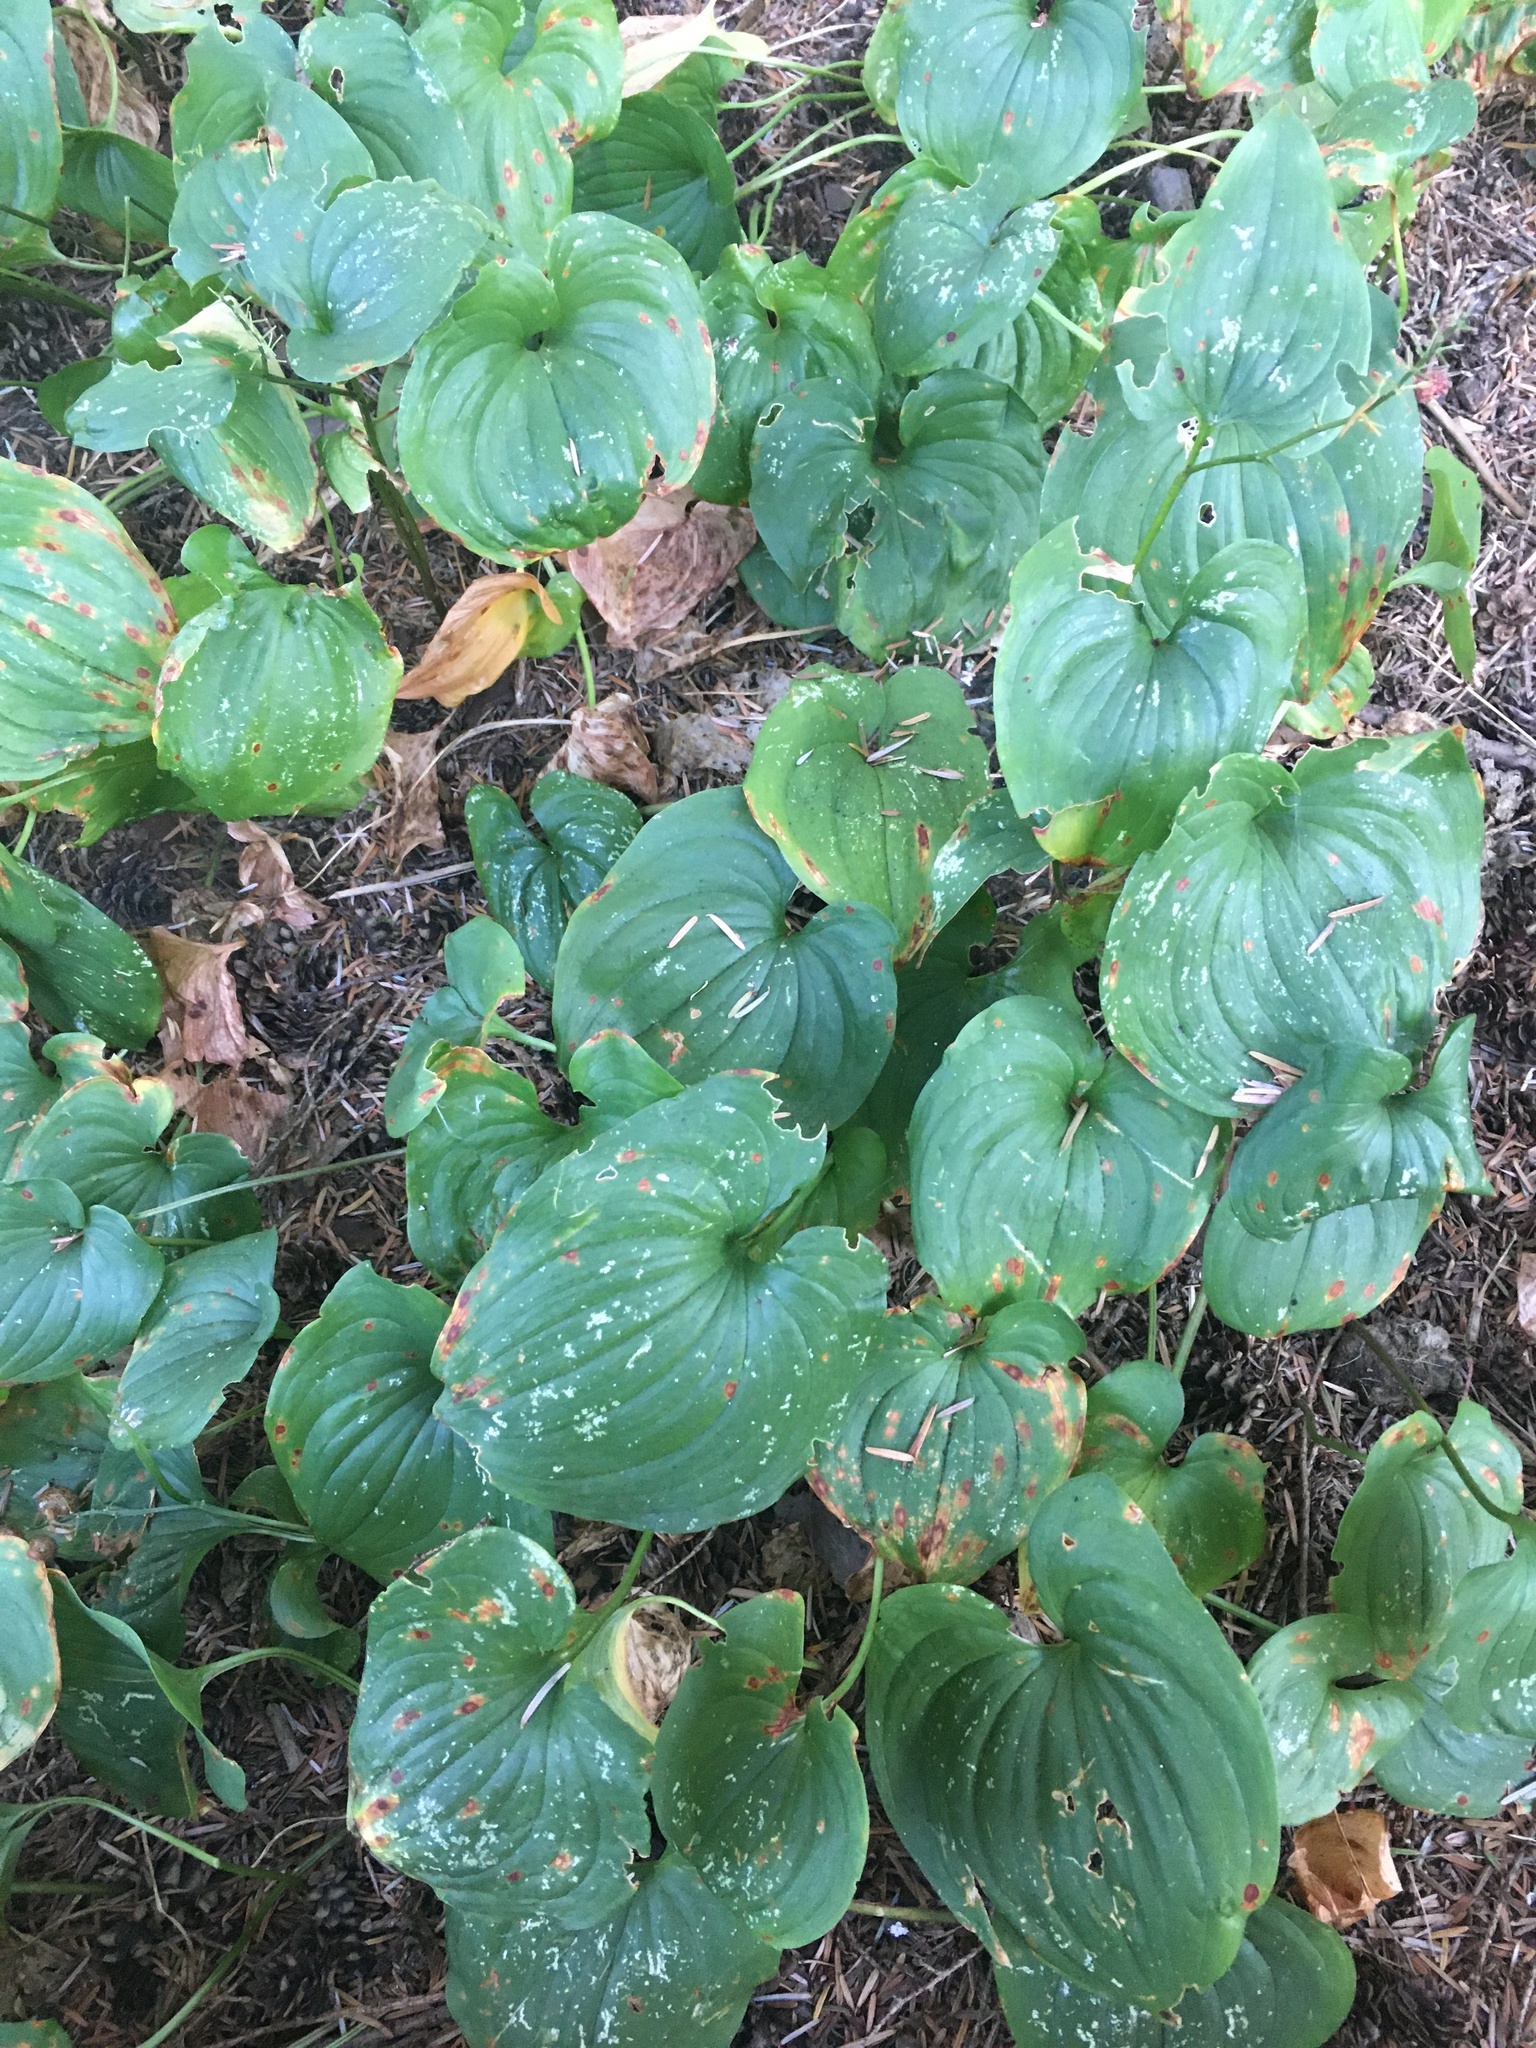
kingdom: Plantae
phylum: Tracheophyta
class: Liliopsida
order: Asparagales
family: Asparagaceae
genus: Maianthemum
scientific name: Maianthemum dilatatum
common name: False lily-of-the-valley
